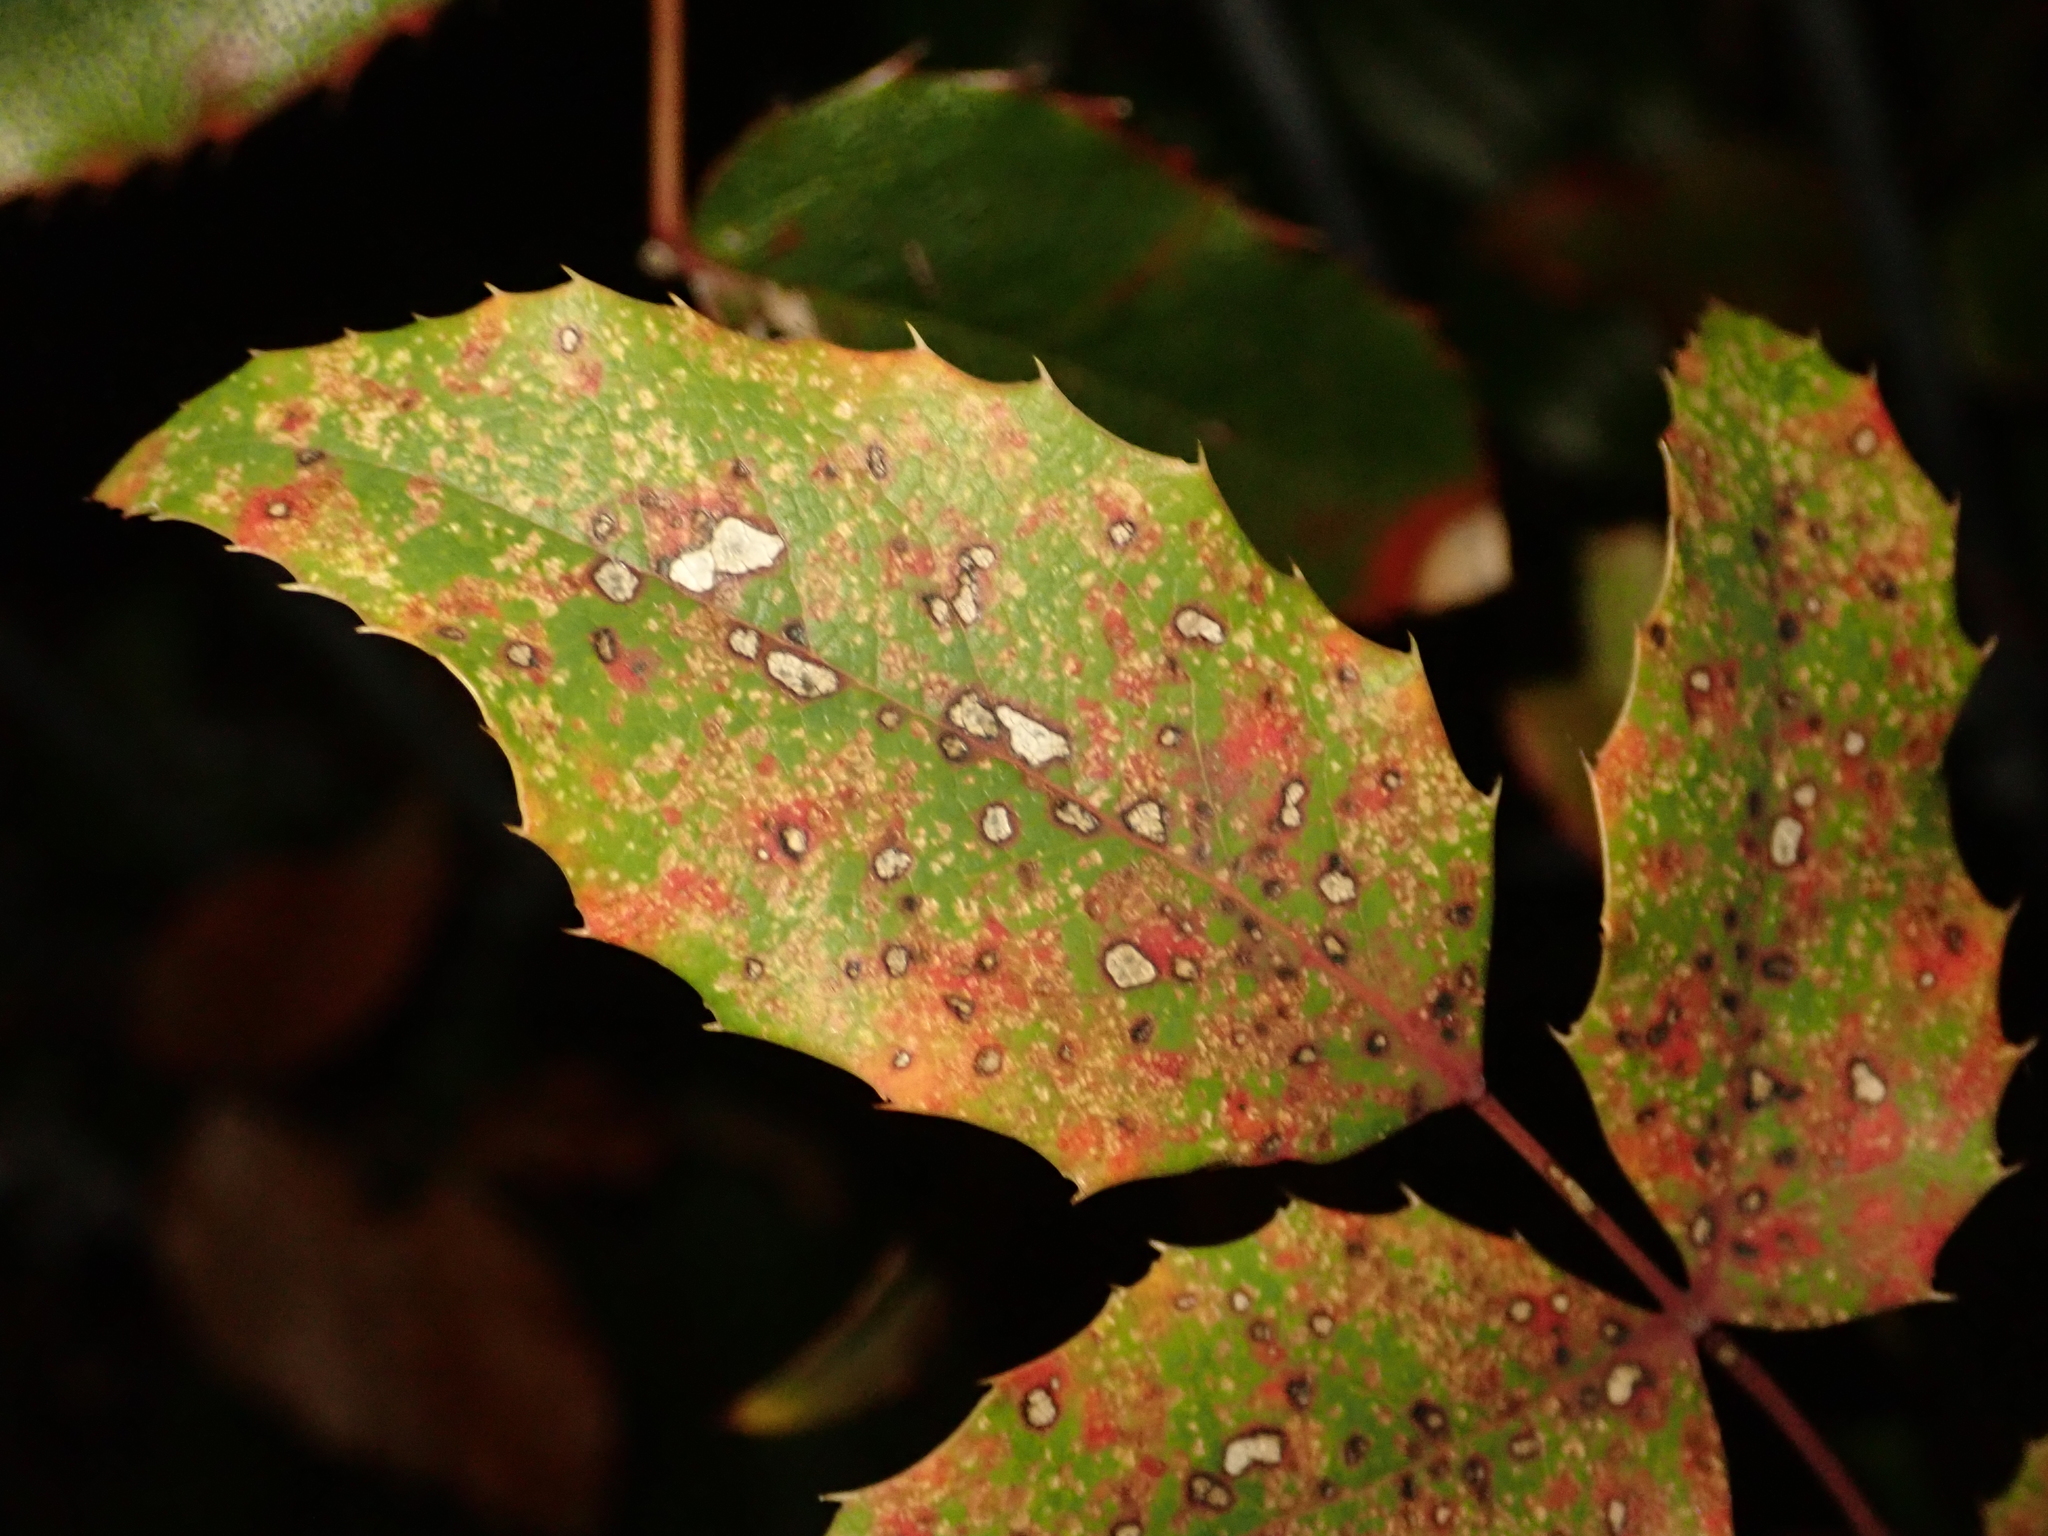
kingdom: Plantae
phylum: Tracheophyta
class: Magnoliopsida
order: Ranunculales
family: Berberidaceae
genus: Mahonia
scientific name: Mahonia aquifolium
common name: Oregon-grape
